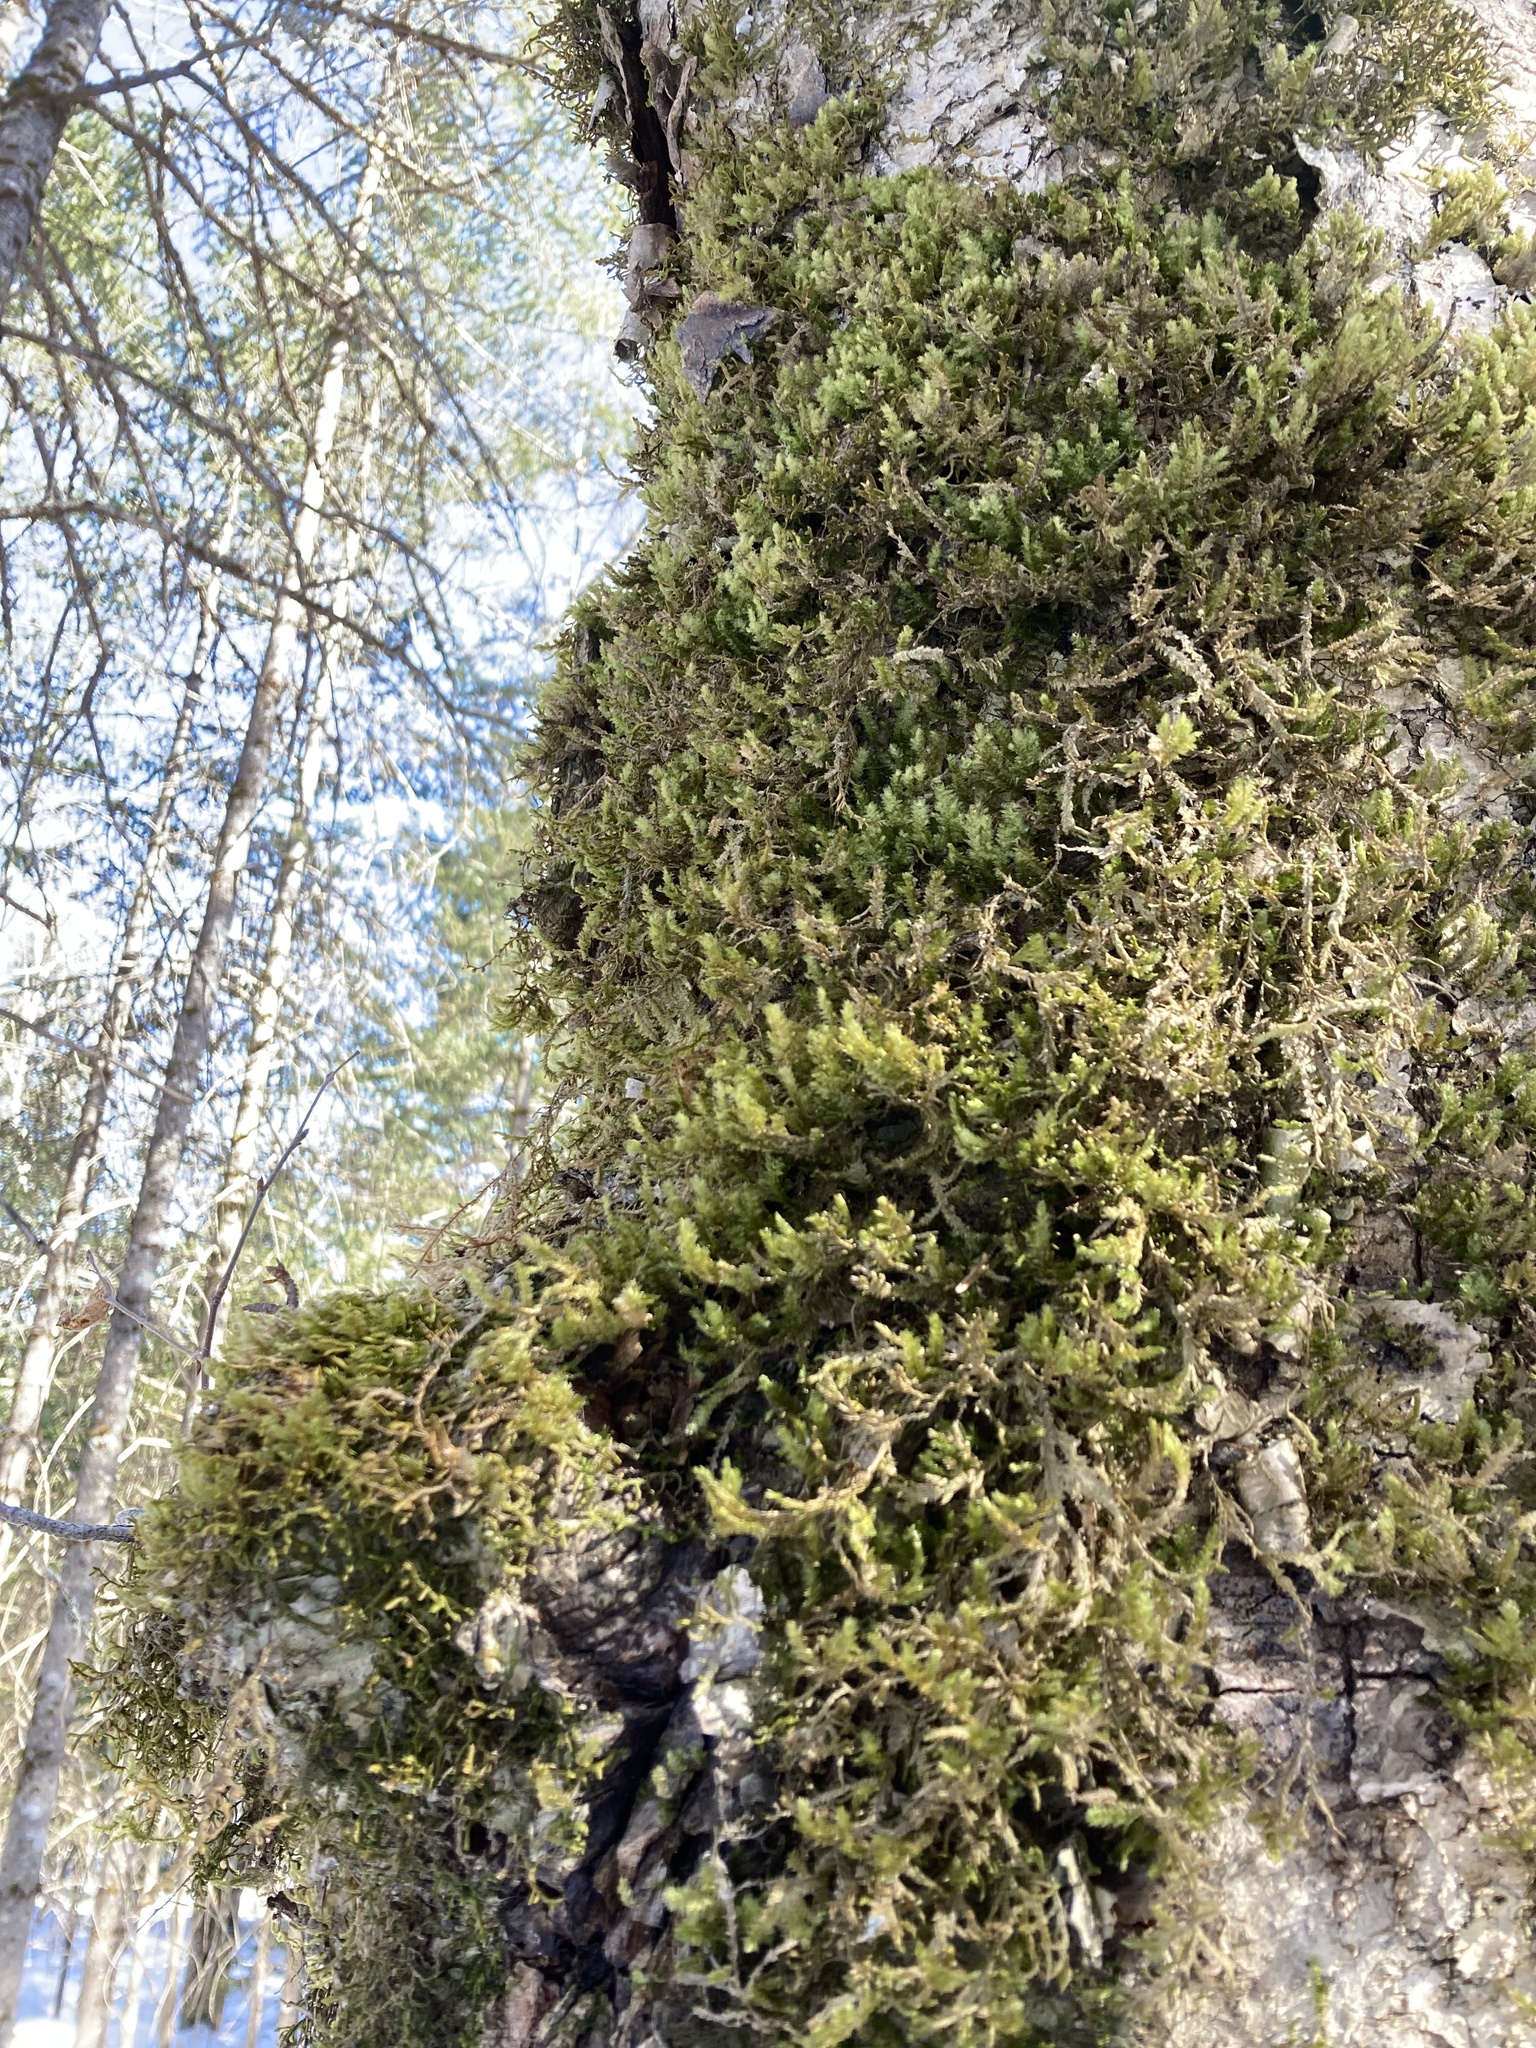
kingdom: Plantae
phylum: Bryophyta
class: Bryopsida
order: Hypnales
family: Neckeraceae
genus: Neckera
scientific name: Neckera pennata
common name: Feathery neckera
